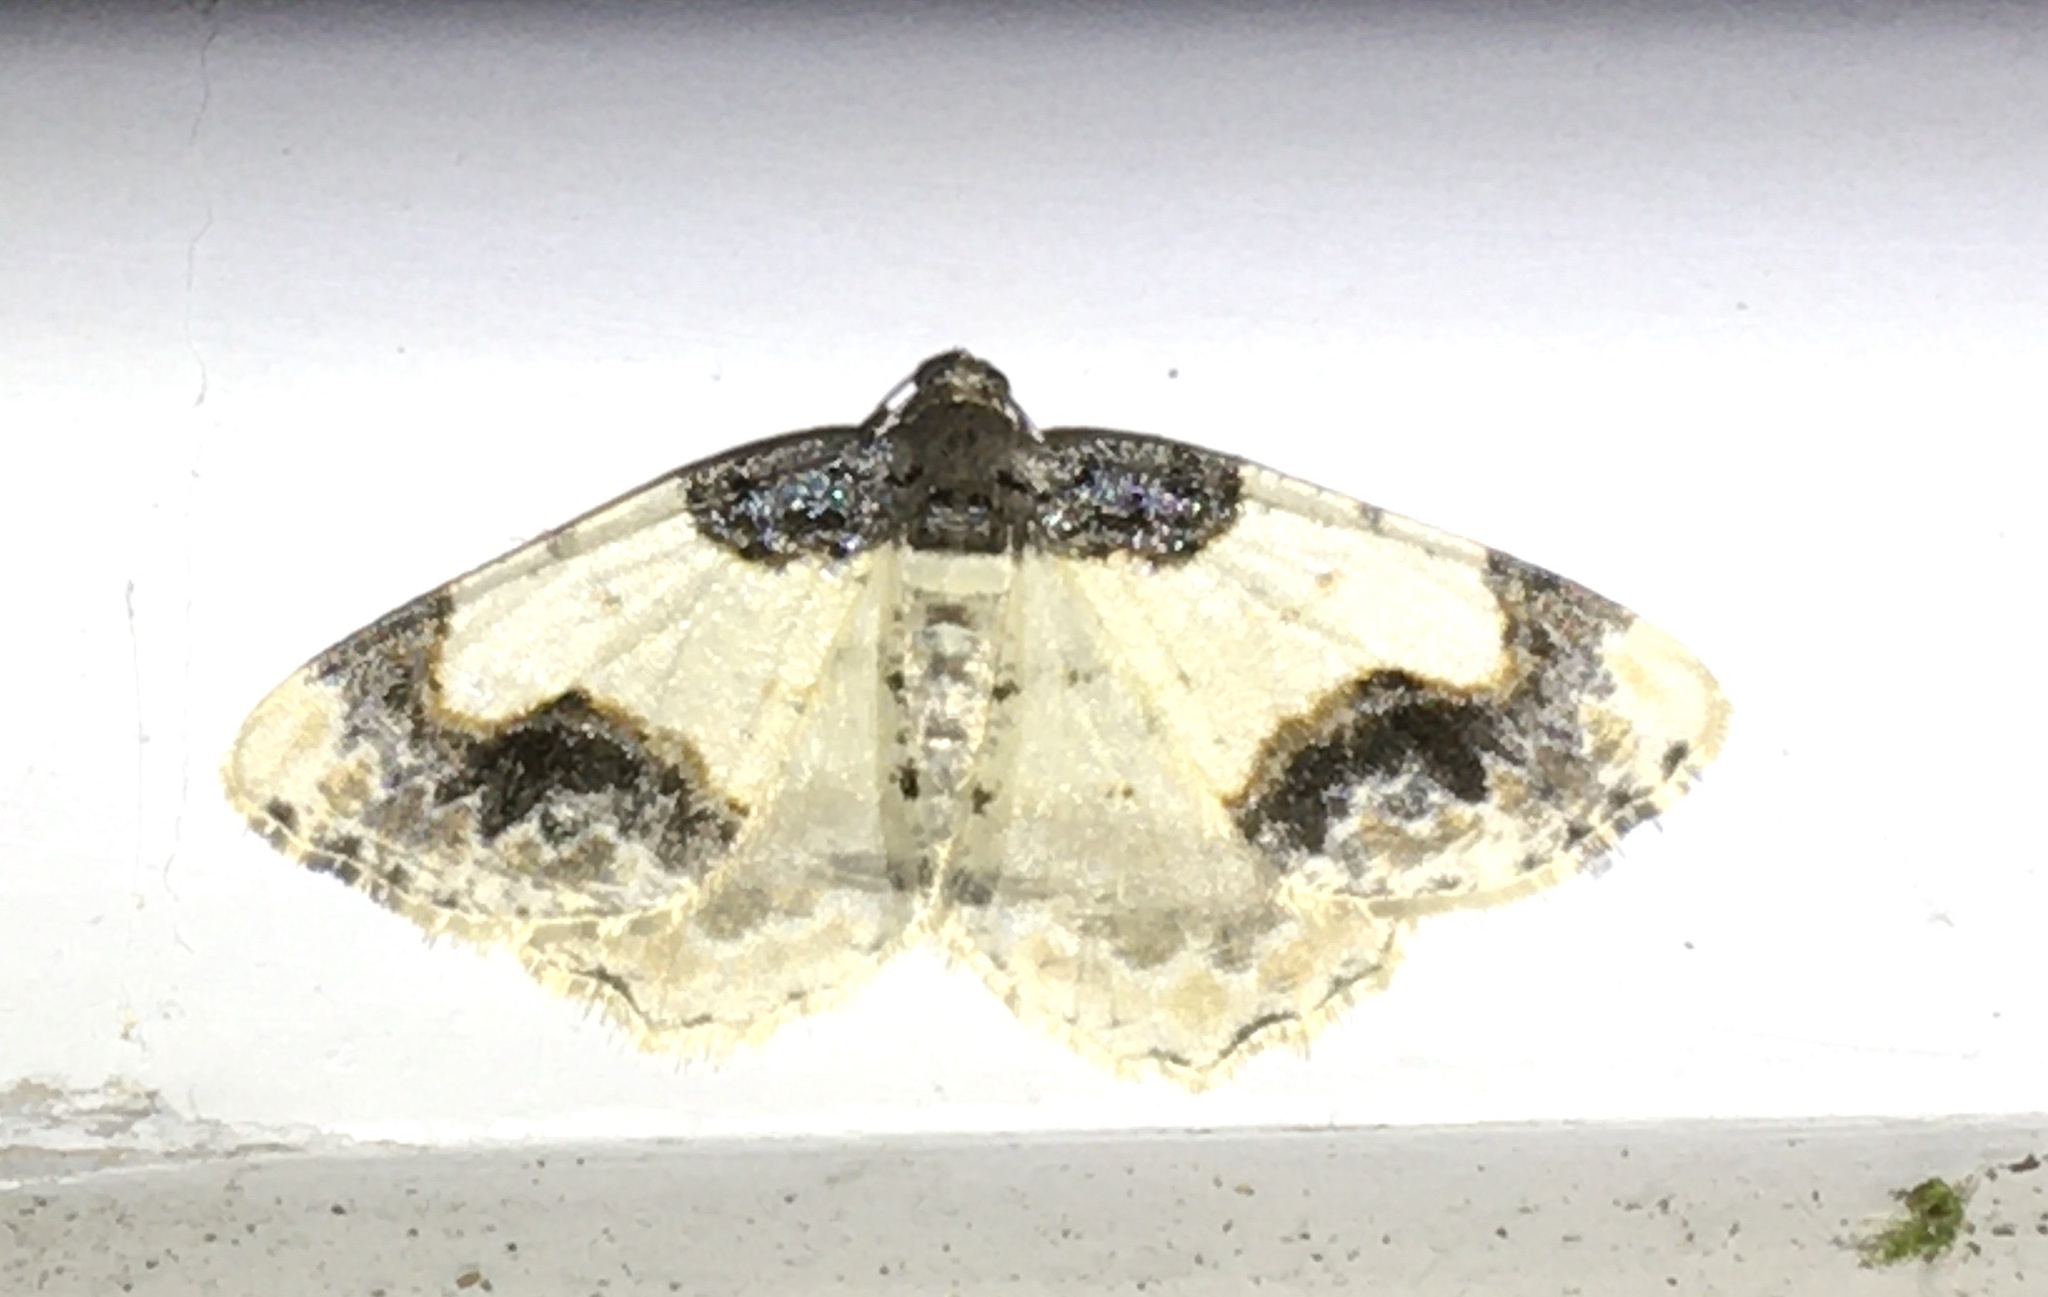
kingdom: Animalia
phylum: Arthropoda
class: Insecta
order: Lepidoptera
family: Geometridae
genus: Ligdia
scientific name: Ligdia adustata
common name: Scorched carpet
